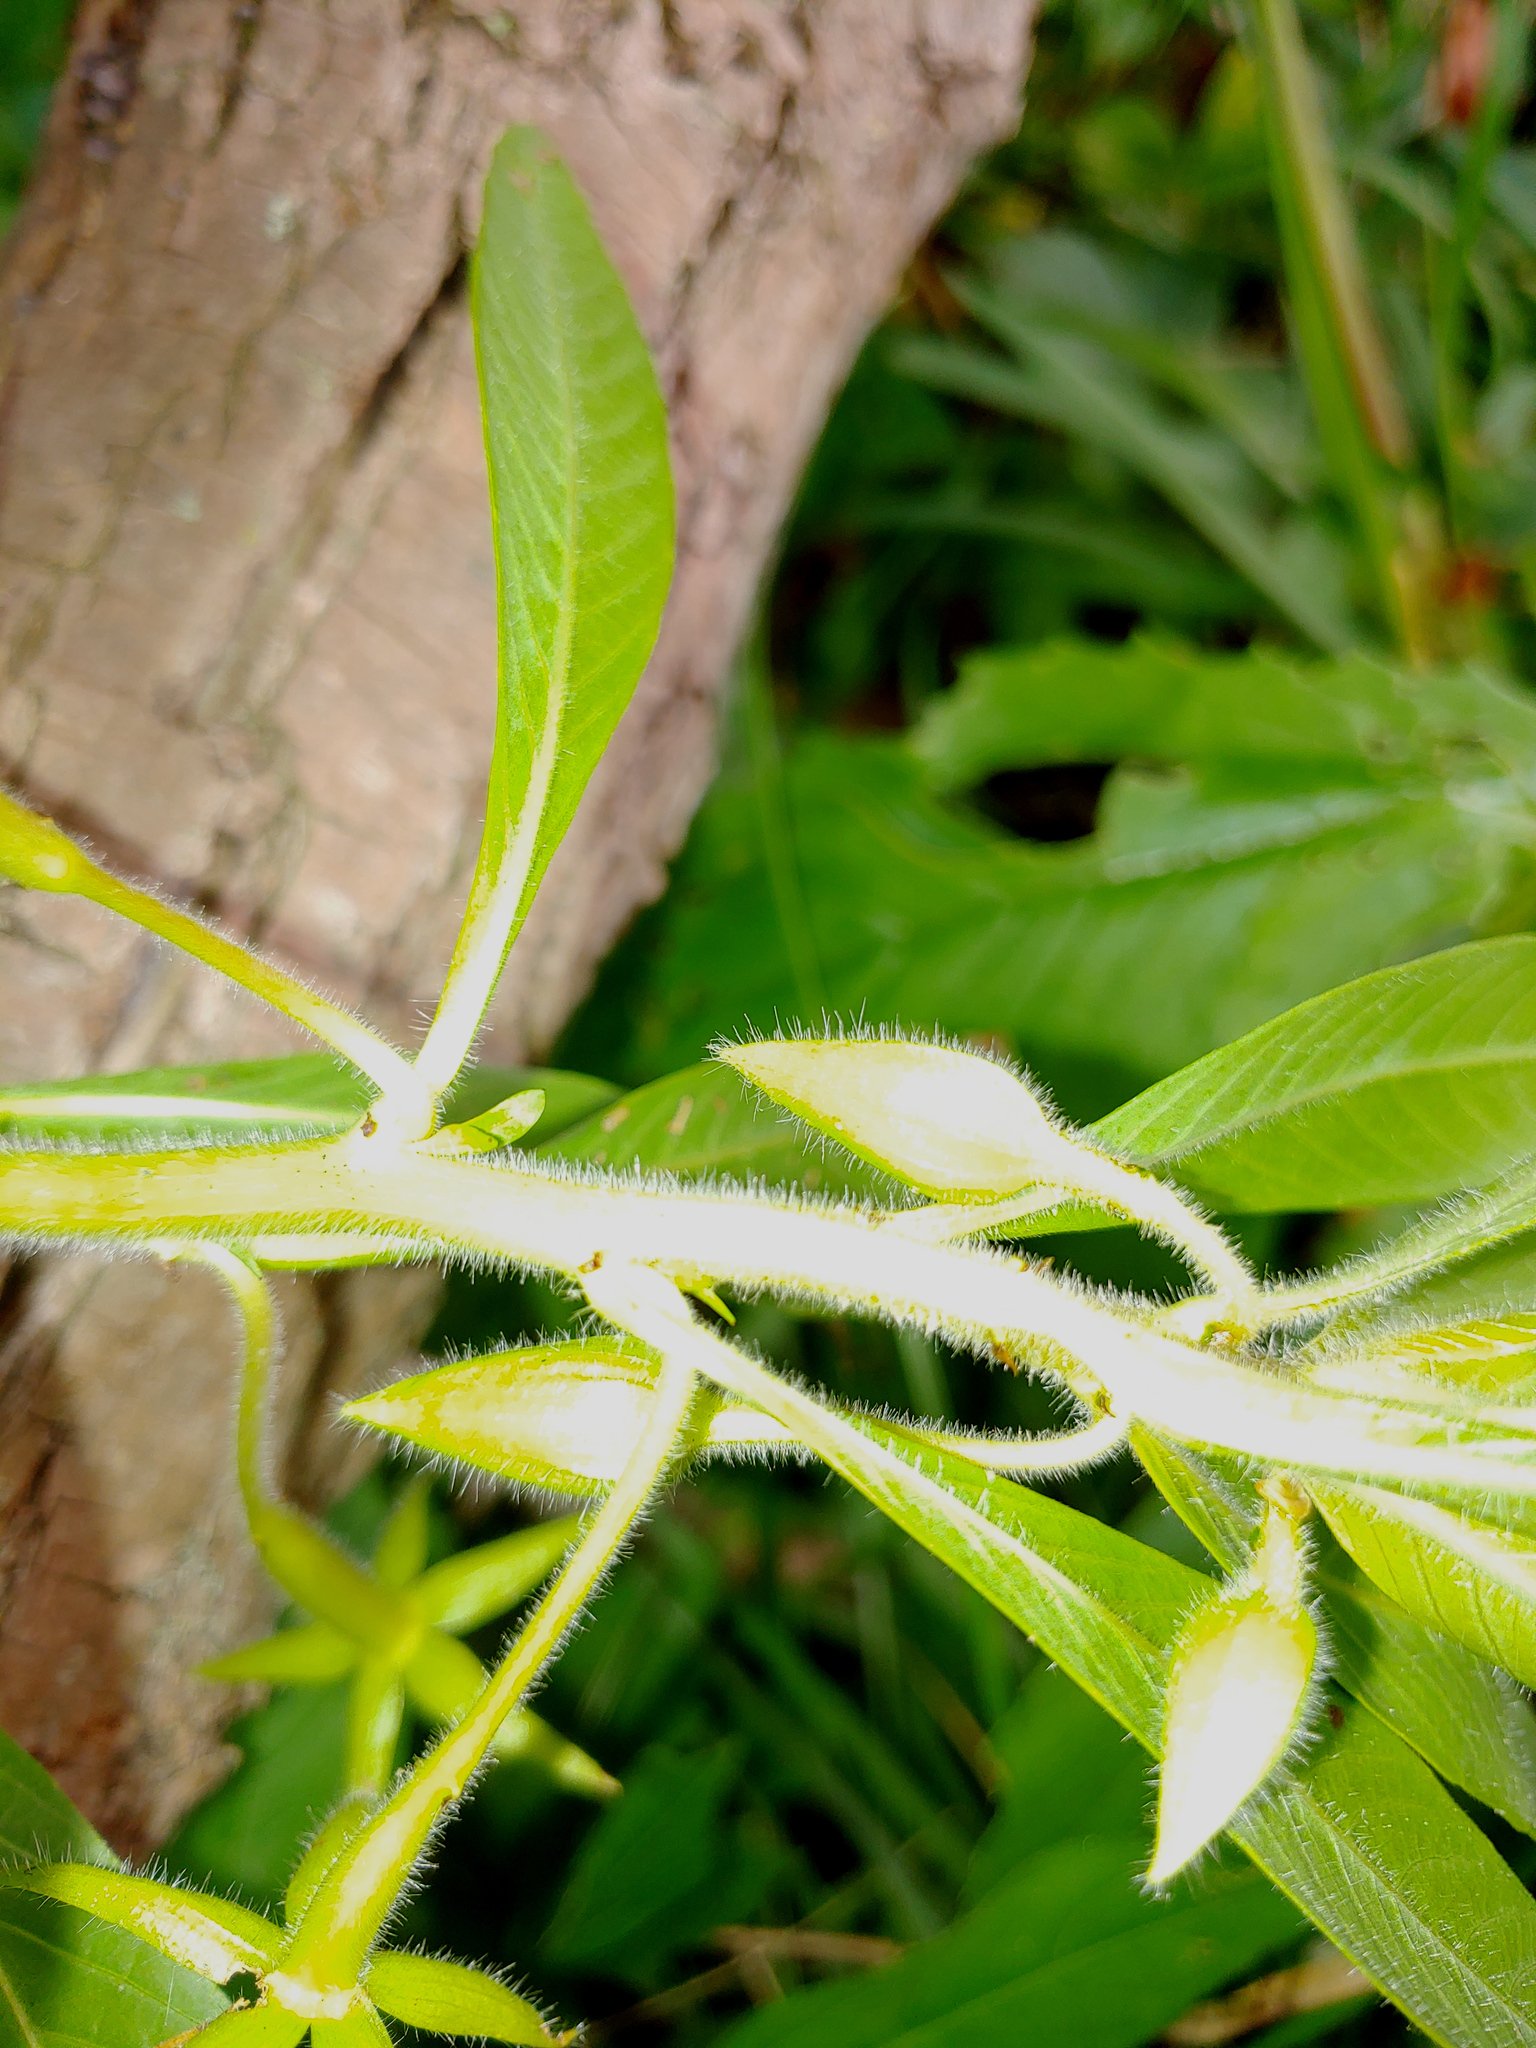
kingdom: Plantae
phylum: Tracheophyta
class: Magnoliopsida
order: Myrtales
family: Onagraceae
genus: Ludwigia
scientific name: Ludwigia hexapetala
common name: Water-primrose
